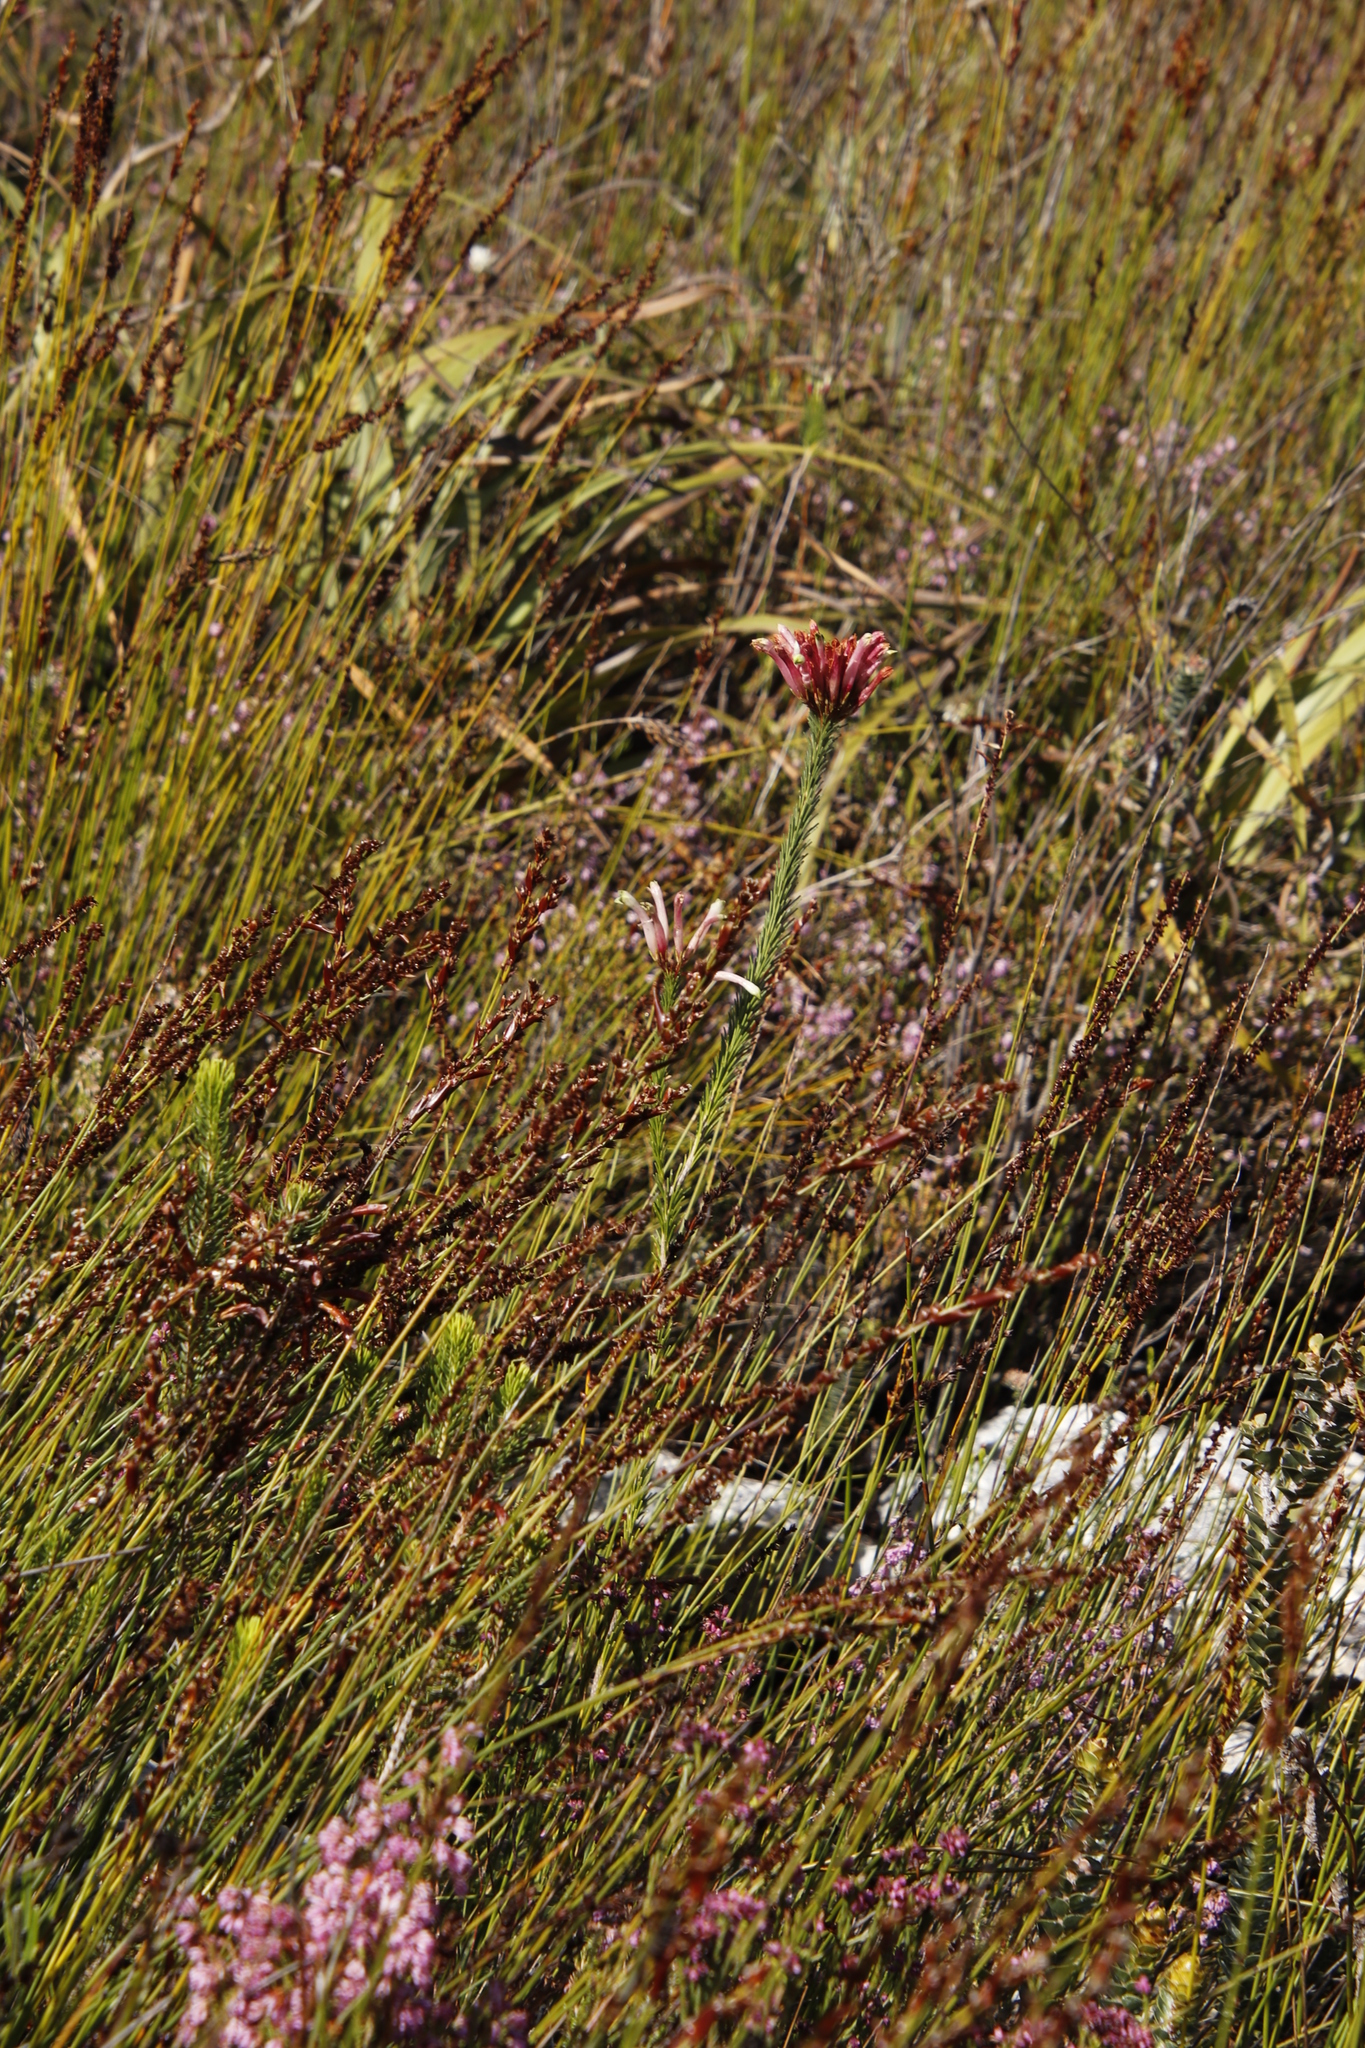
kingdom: Plantae
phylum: Tracheophyta
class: Magnoliopsida
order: Ericales
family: Ericaceae
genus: Erica
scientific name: Erica fascicularis
